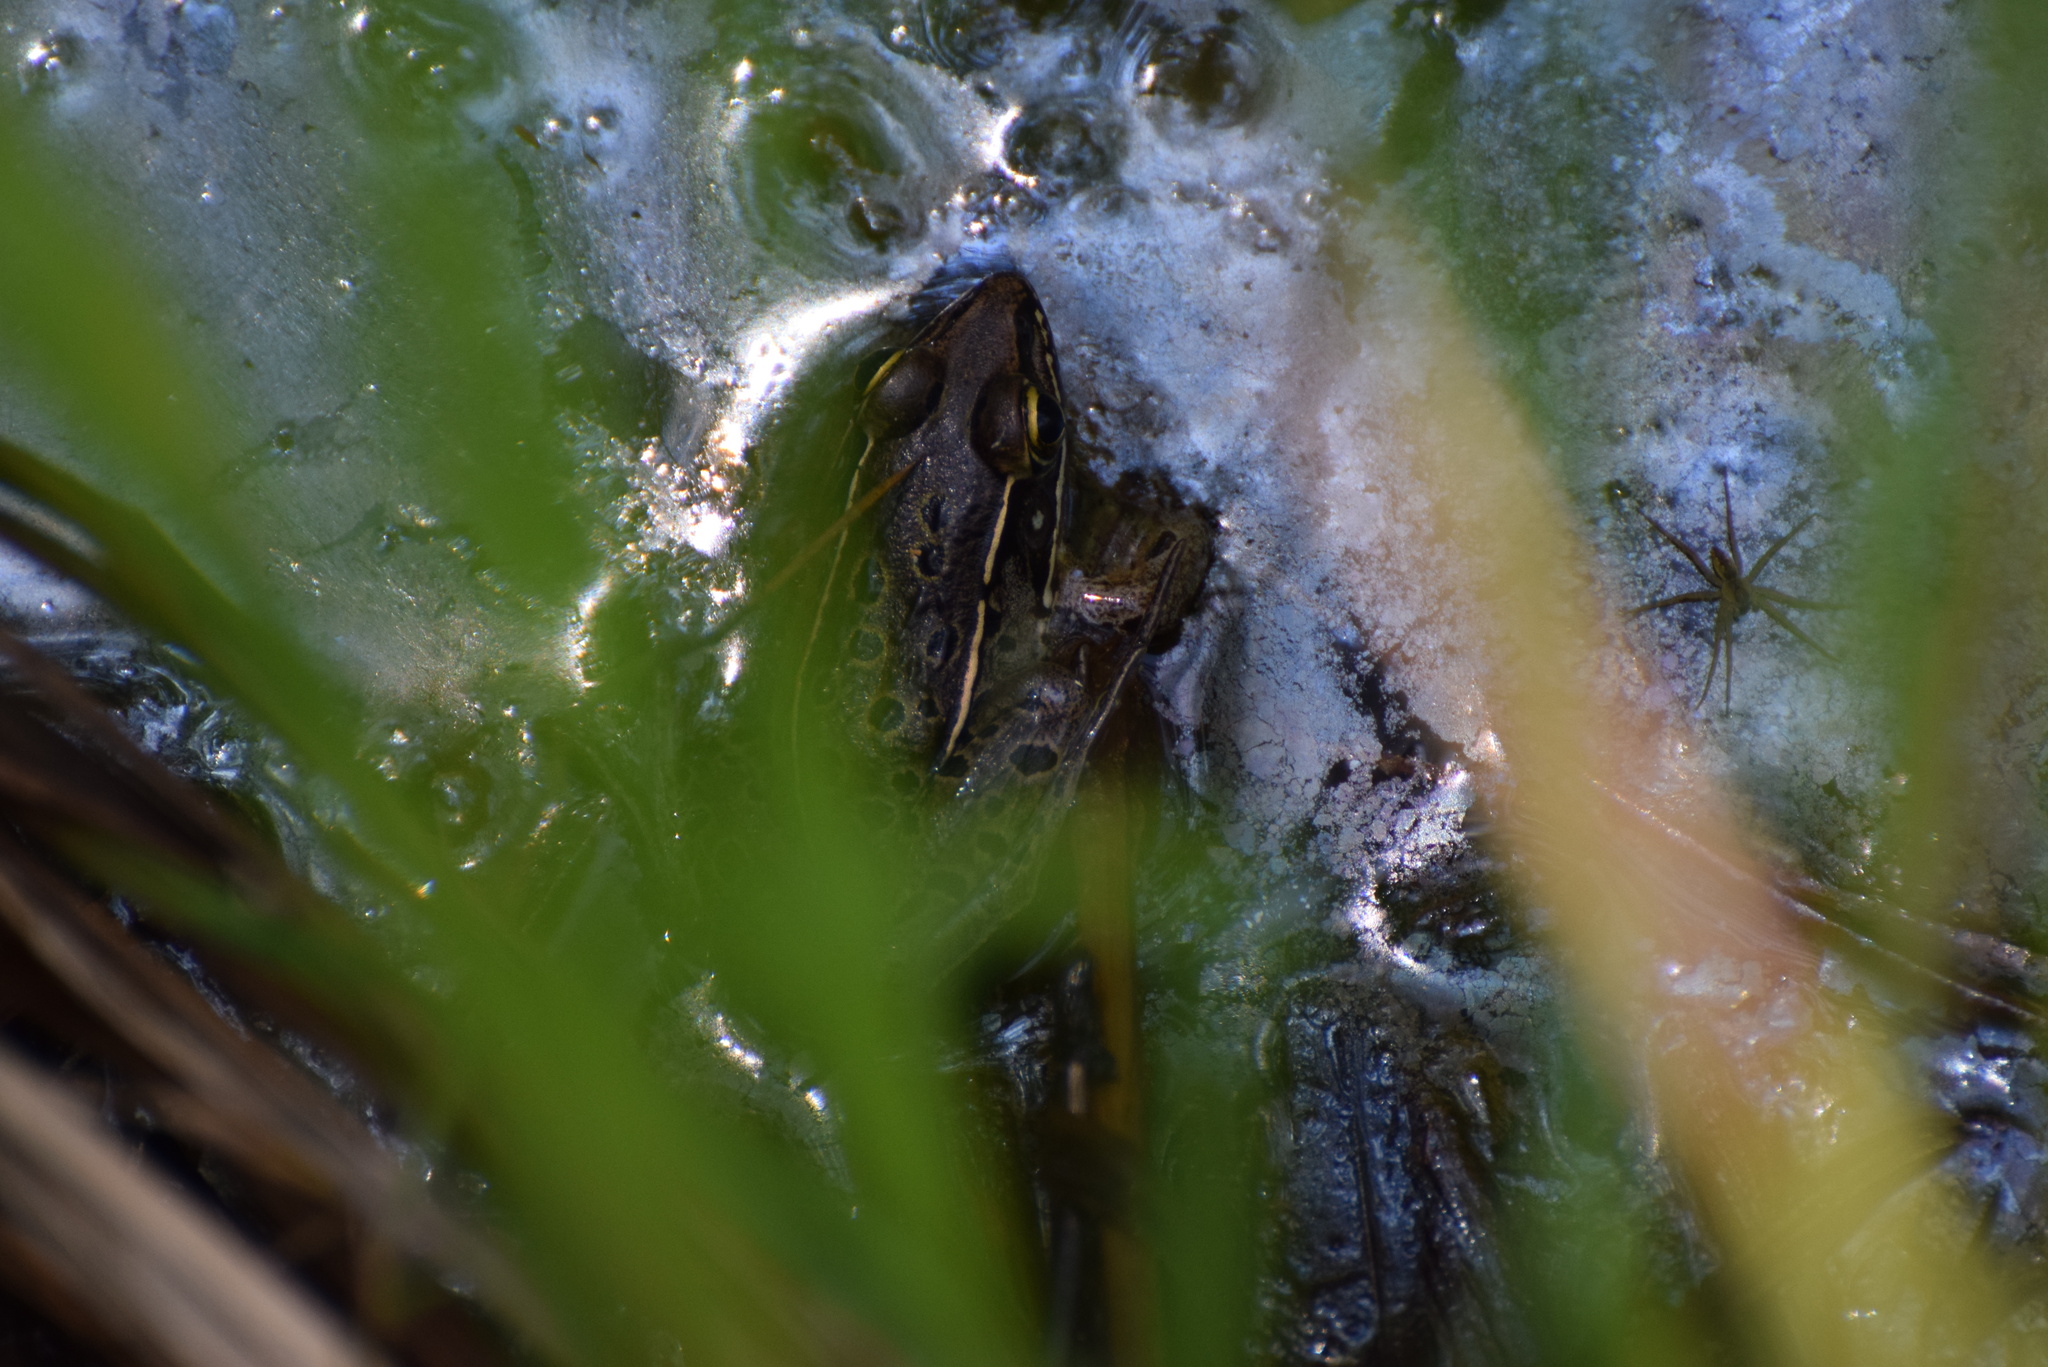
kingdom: Animalia
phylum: Chordata
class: Amphibia
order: Anura
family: Ranidae
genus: Lithobates
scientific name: Lithobates sphenocephalus
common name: Southern leopard frog
